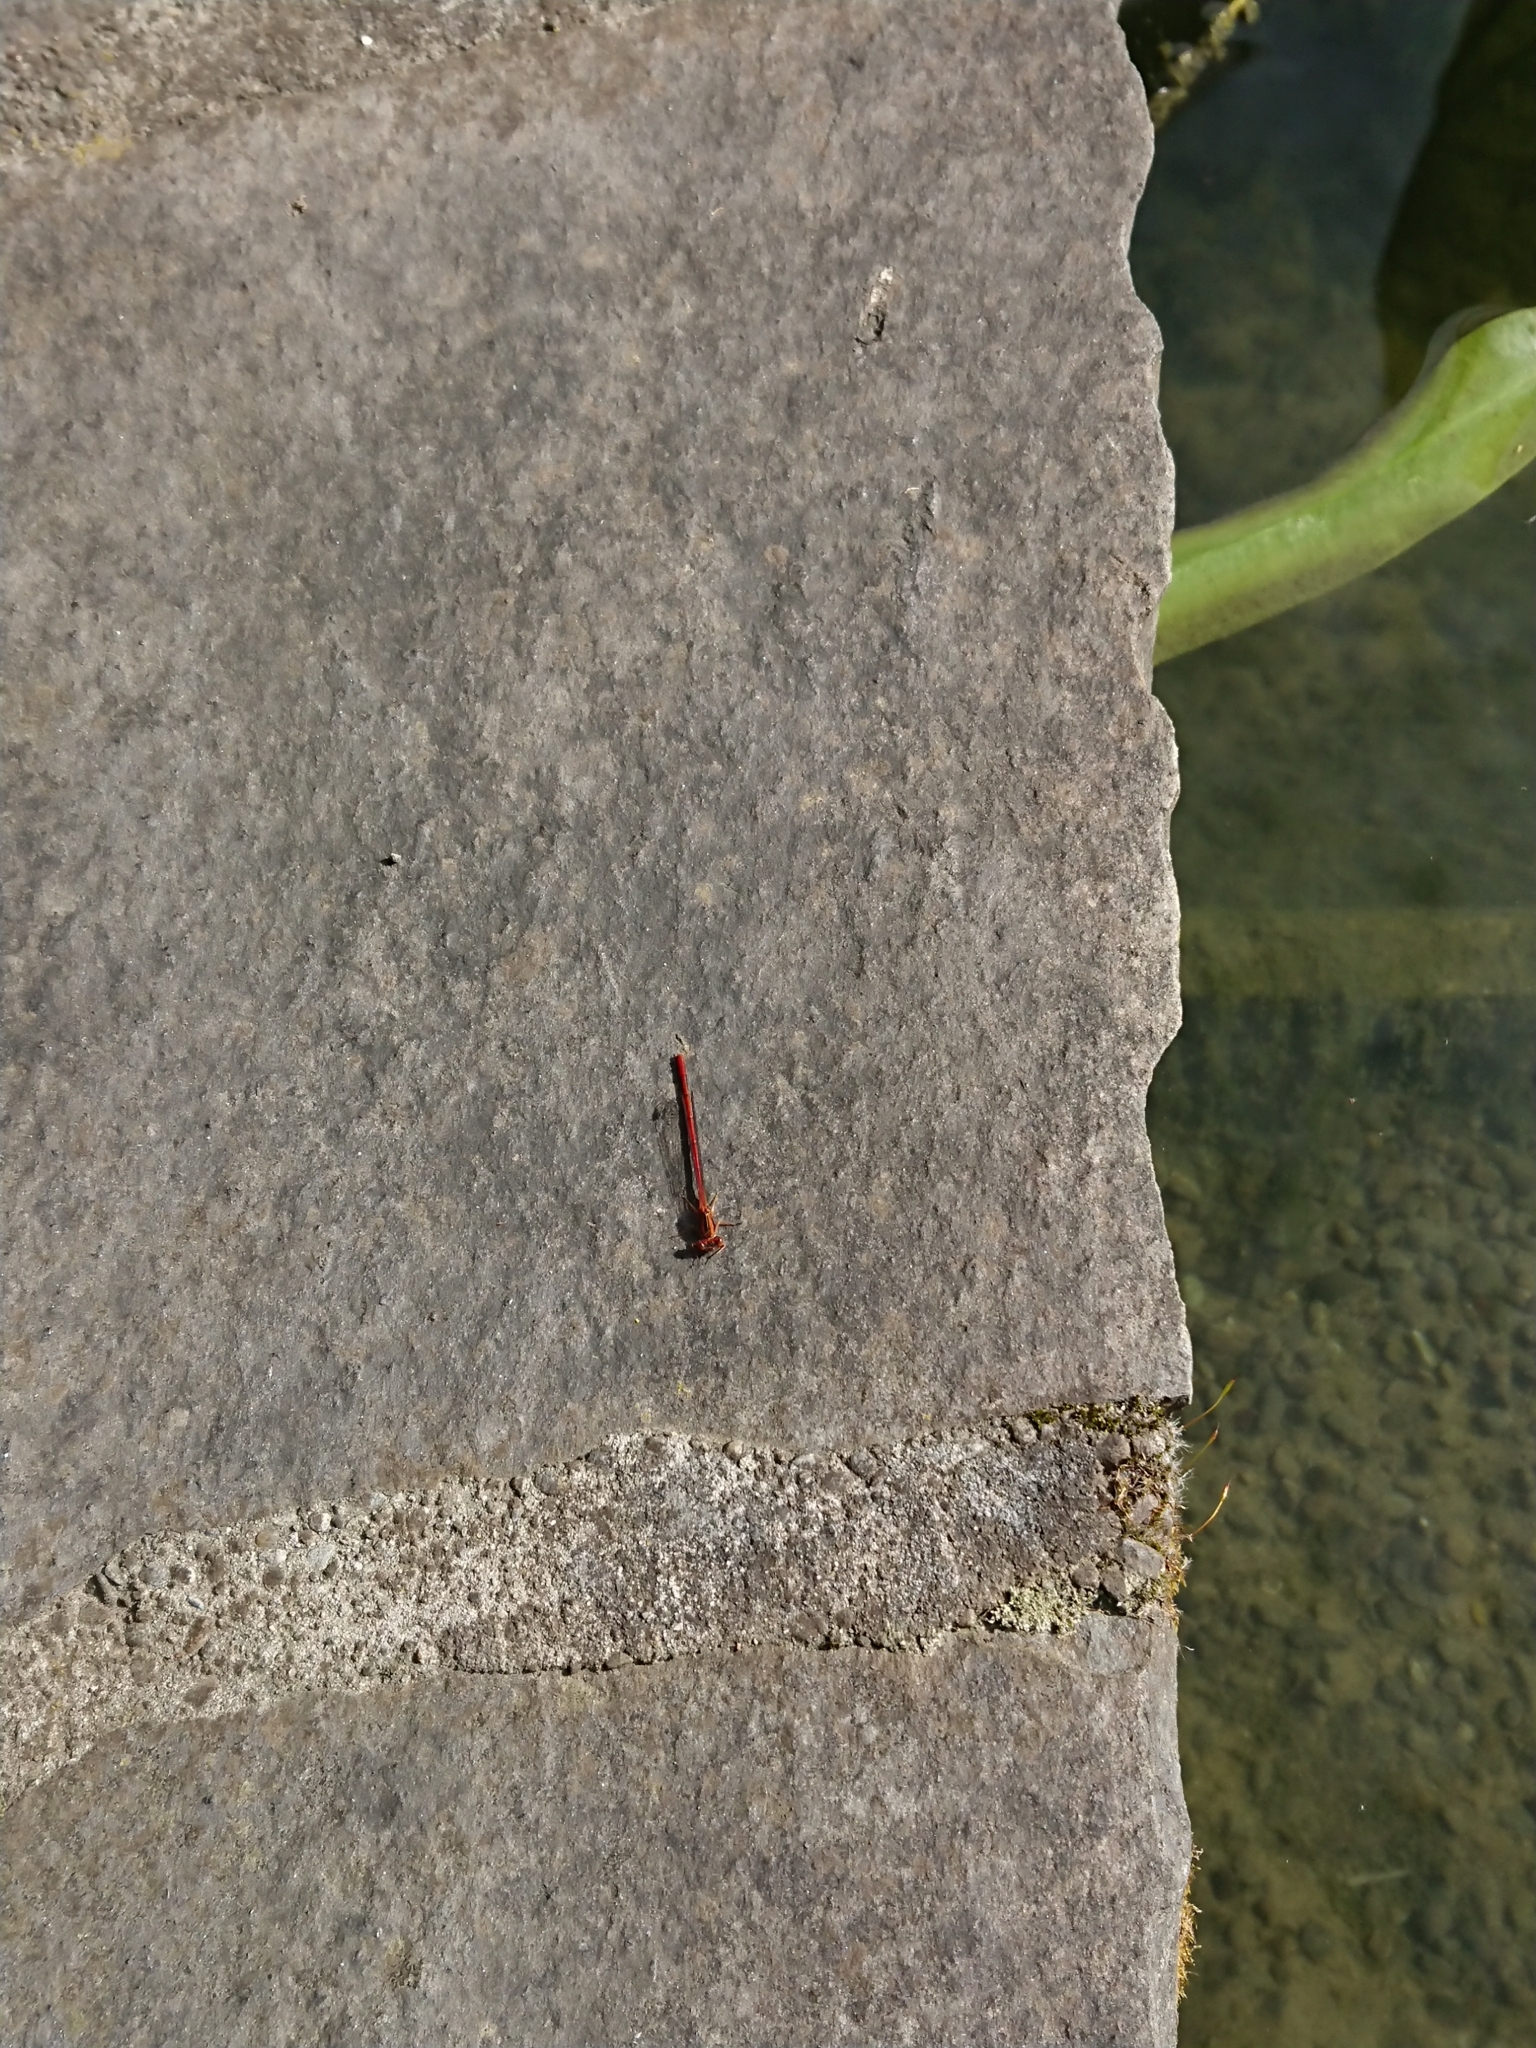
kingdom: Animalia
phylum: Arthropoda
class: Insecta
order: Odonata
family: Coenagrionidae
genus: Xanthocnemis
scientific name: Xanthocnemis zealandica
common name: Common redcoat damselfly
